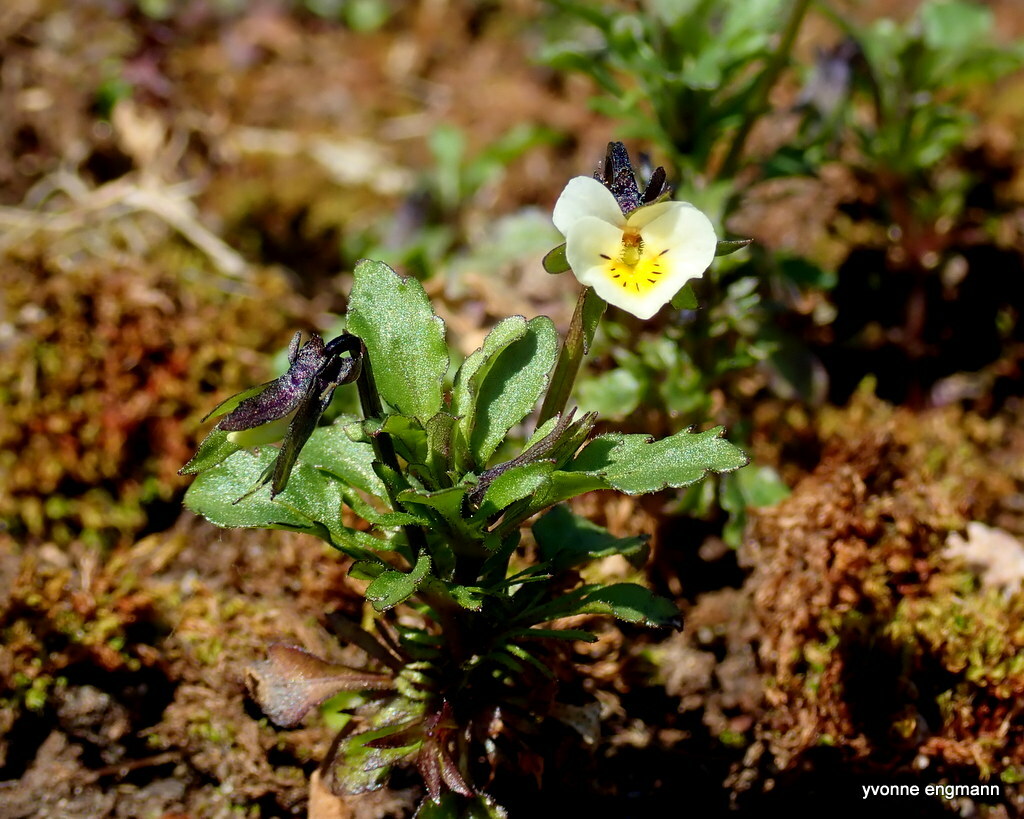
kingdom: Plantae
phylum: Tracheophyta
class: Magnoliopsida
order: Malpighiales
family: Violaceae
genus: Viola
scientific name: Viola arvensis
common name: Field pansy
